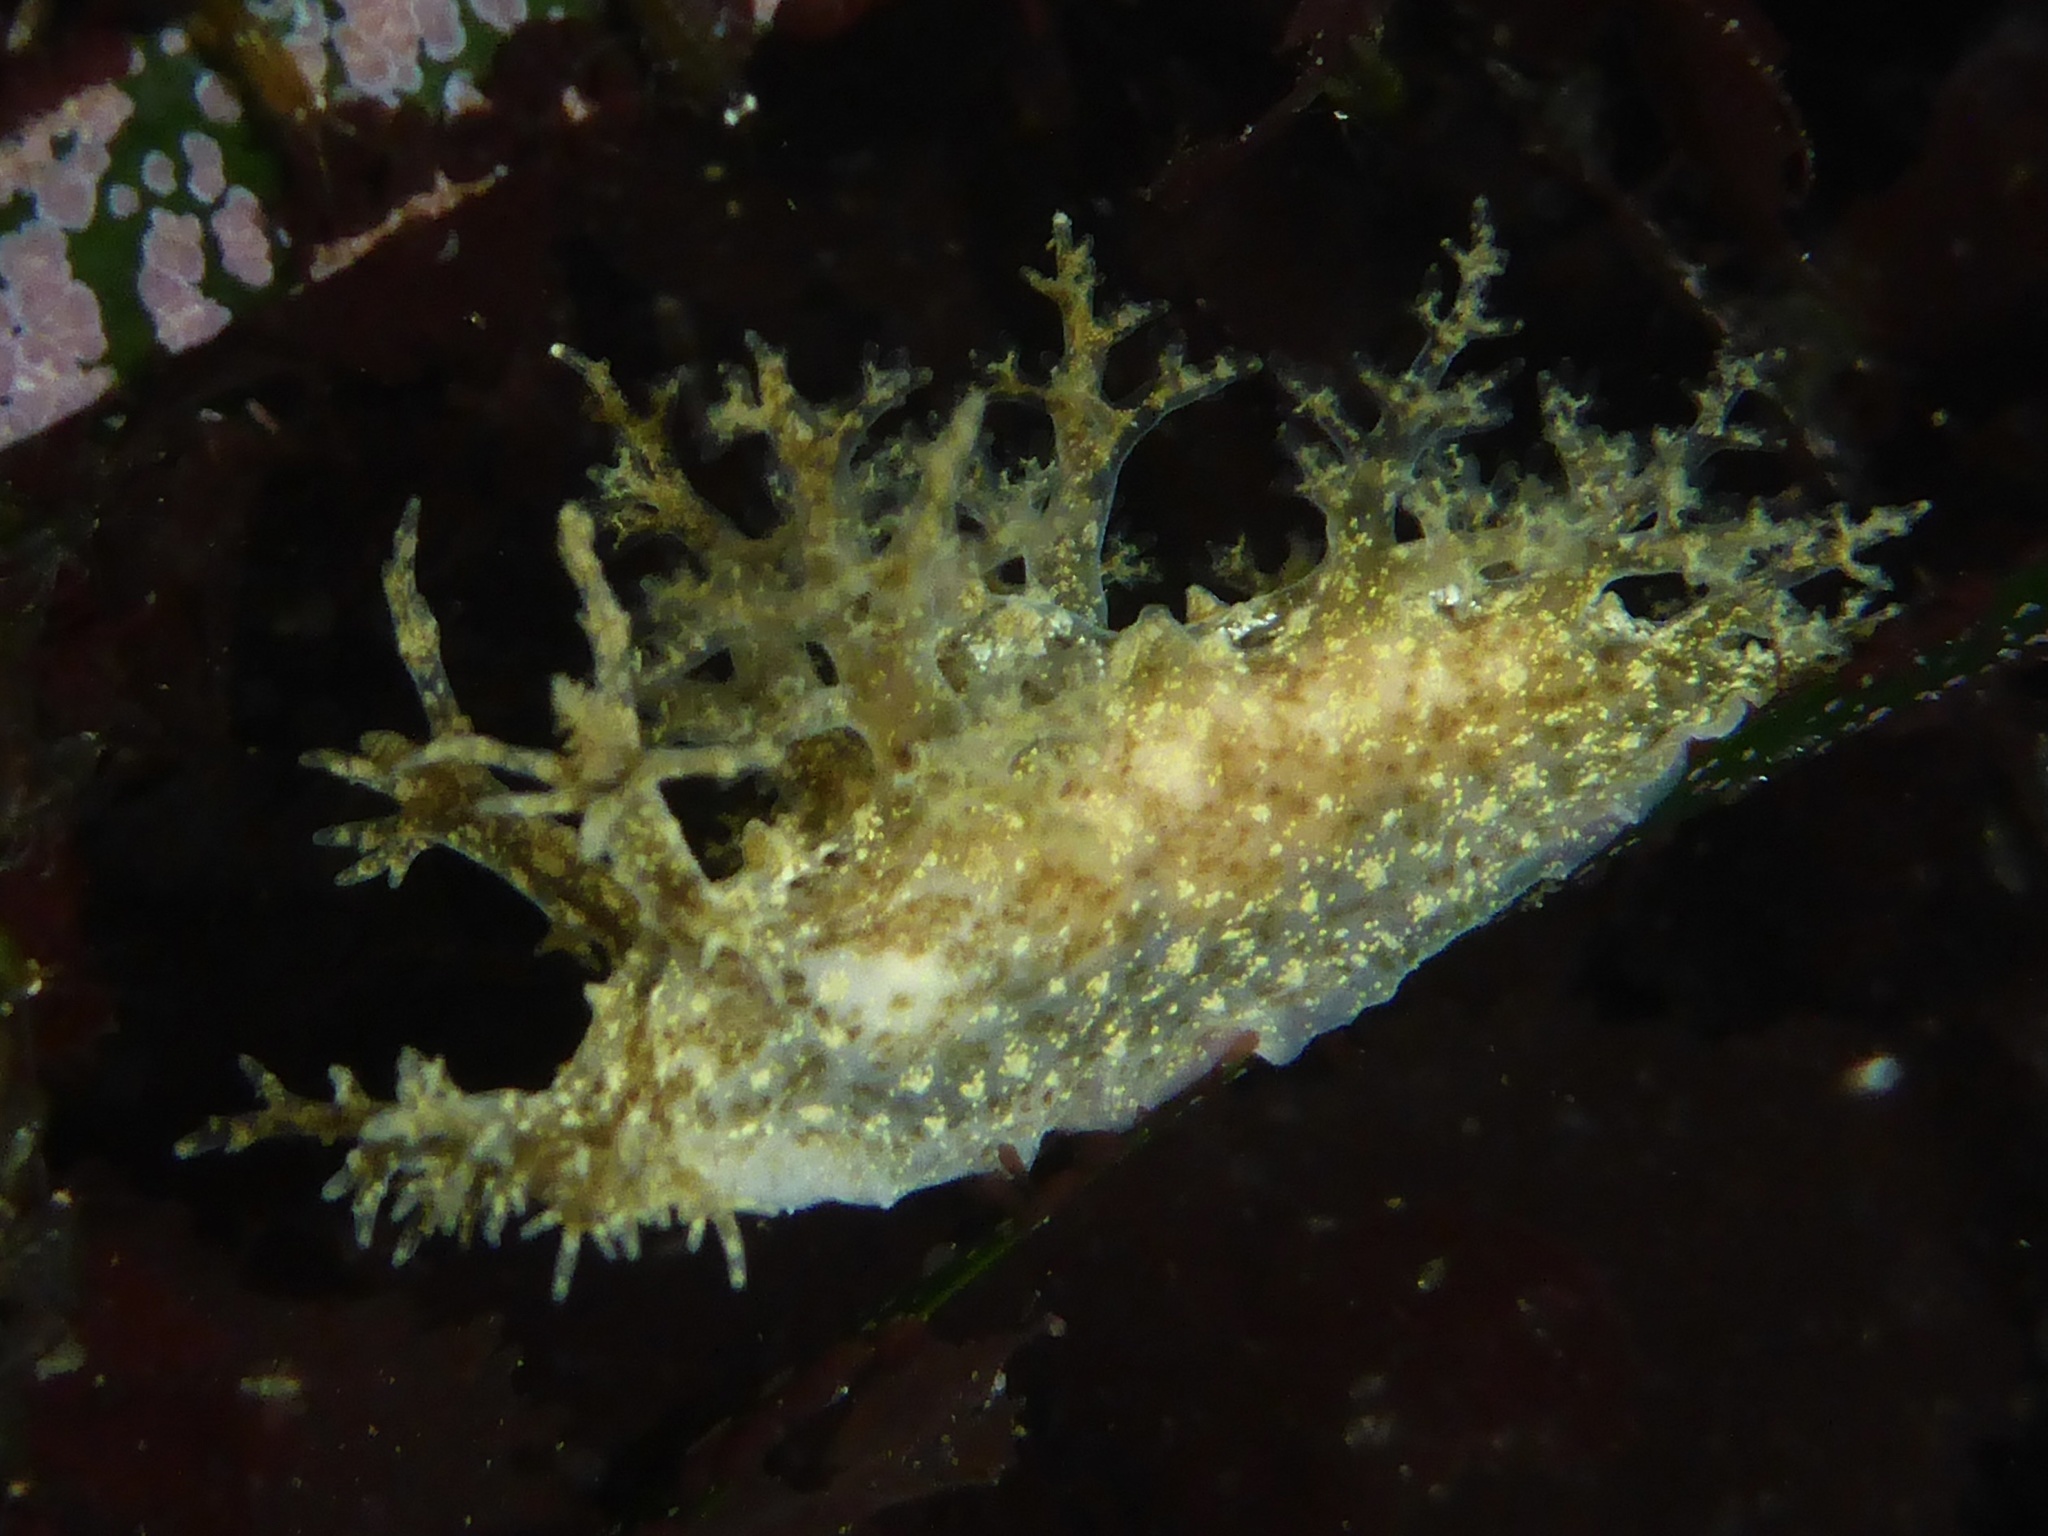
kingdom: Animalia
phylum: Mollusca
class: Gastropoda
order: Nudibranchia
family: Dendronotidae
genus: Dendronotus
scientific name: Dendronotus venustus
